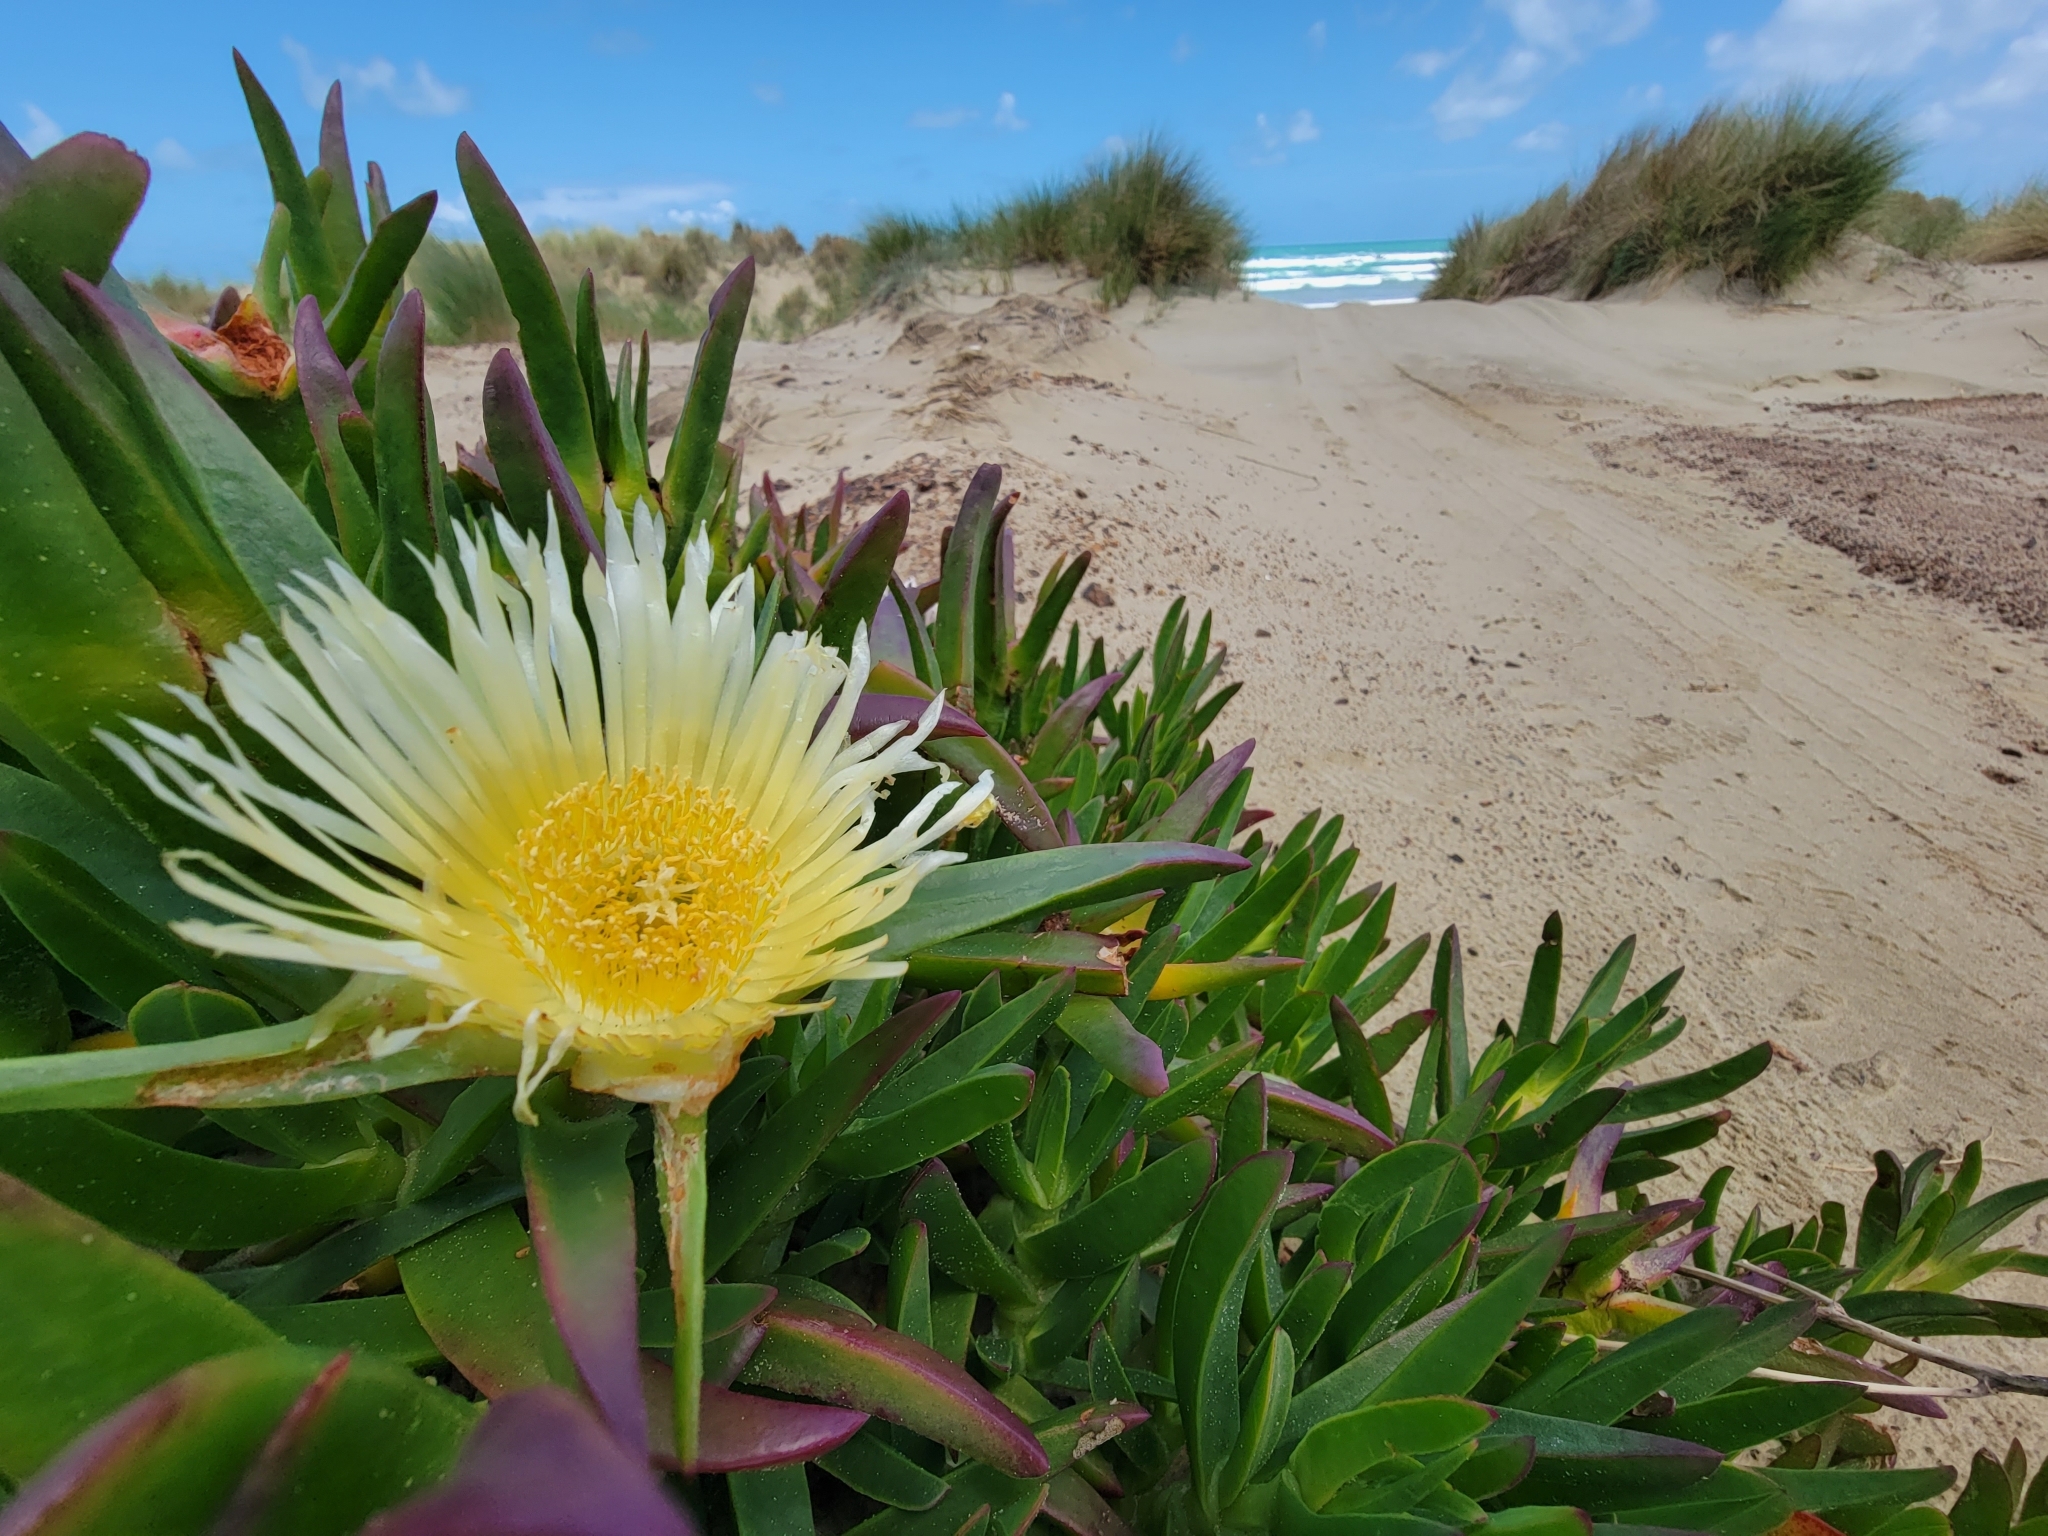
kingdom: Plantae
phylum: Tracheophyta
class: Magnoliopsida
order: Caryophyllales
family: Aizoaceae
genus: Carpobrotus
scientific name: Carpobrotus edulis
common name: Hottentot-fig
